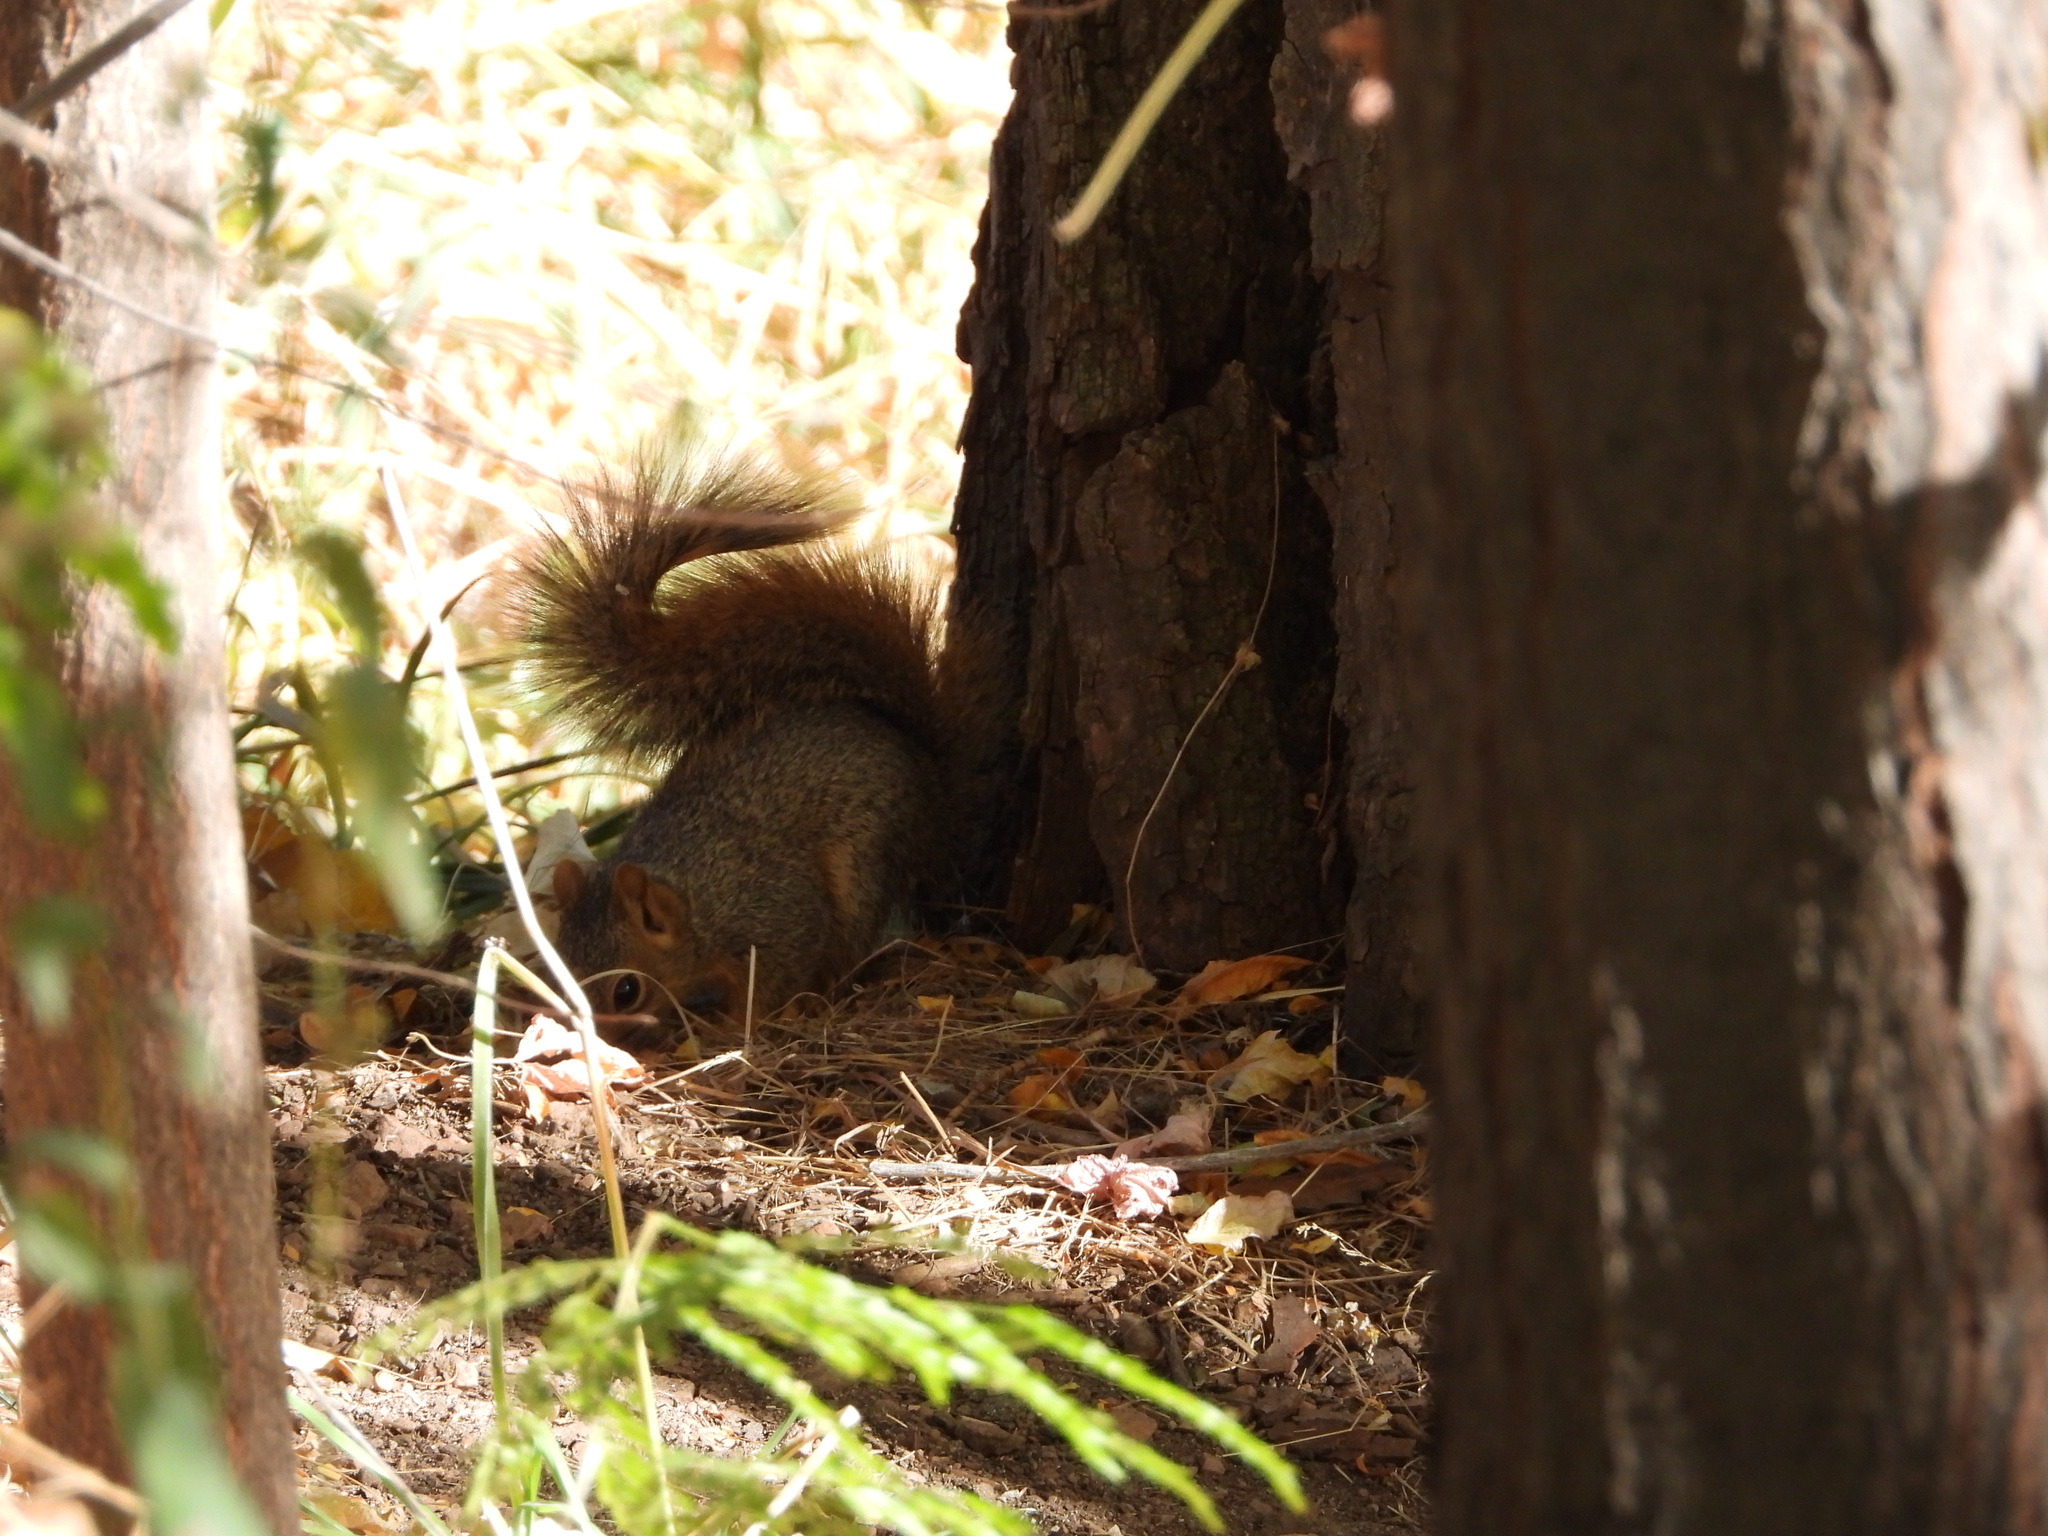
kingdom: Animalia
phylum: Chordata
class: Mammalia
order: Rodentia
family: Sciuridae
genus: Sciurus
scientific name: Sciurus niger
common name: Fox squirrel
